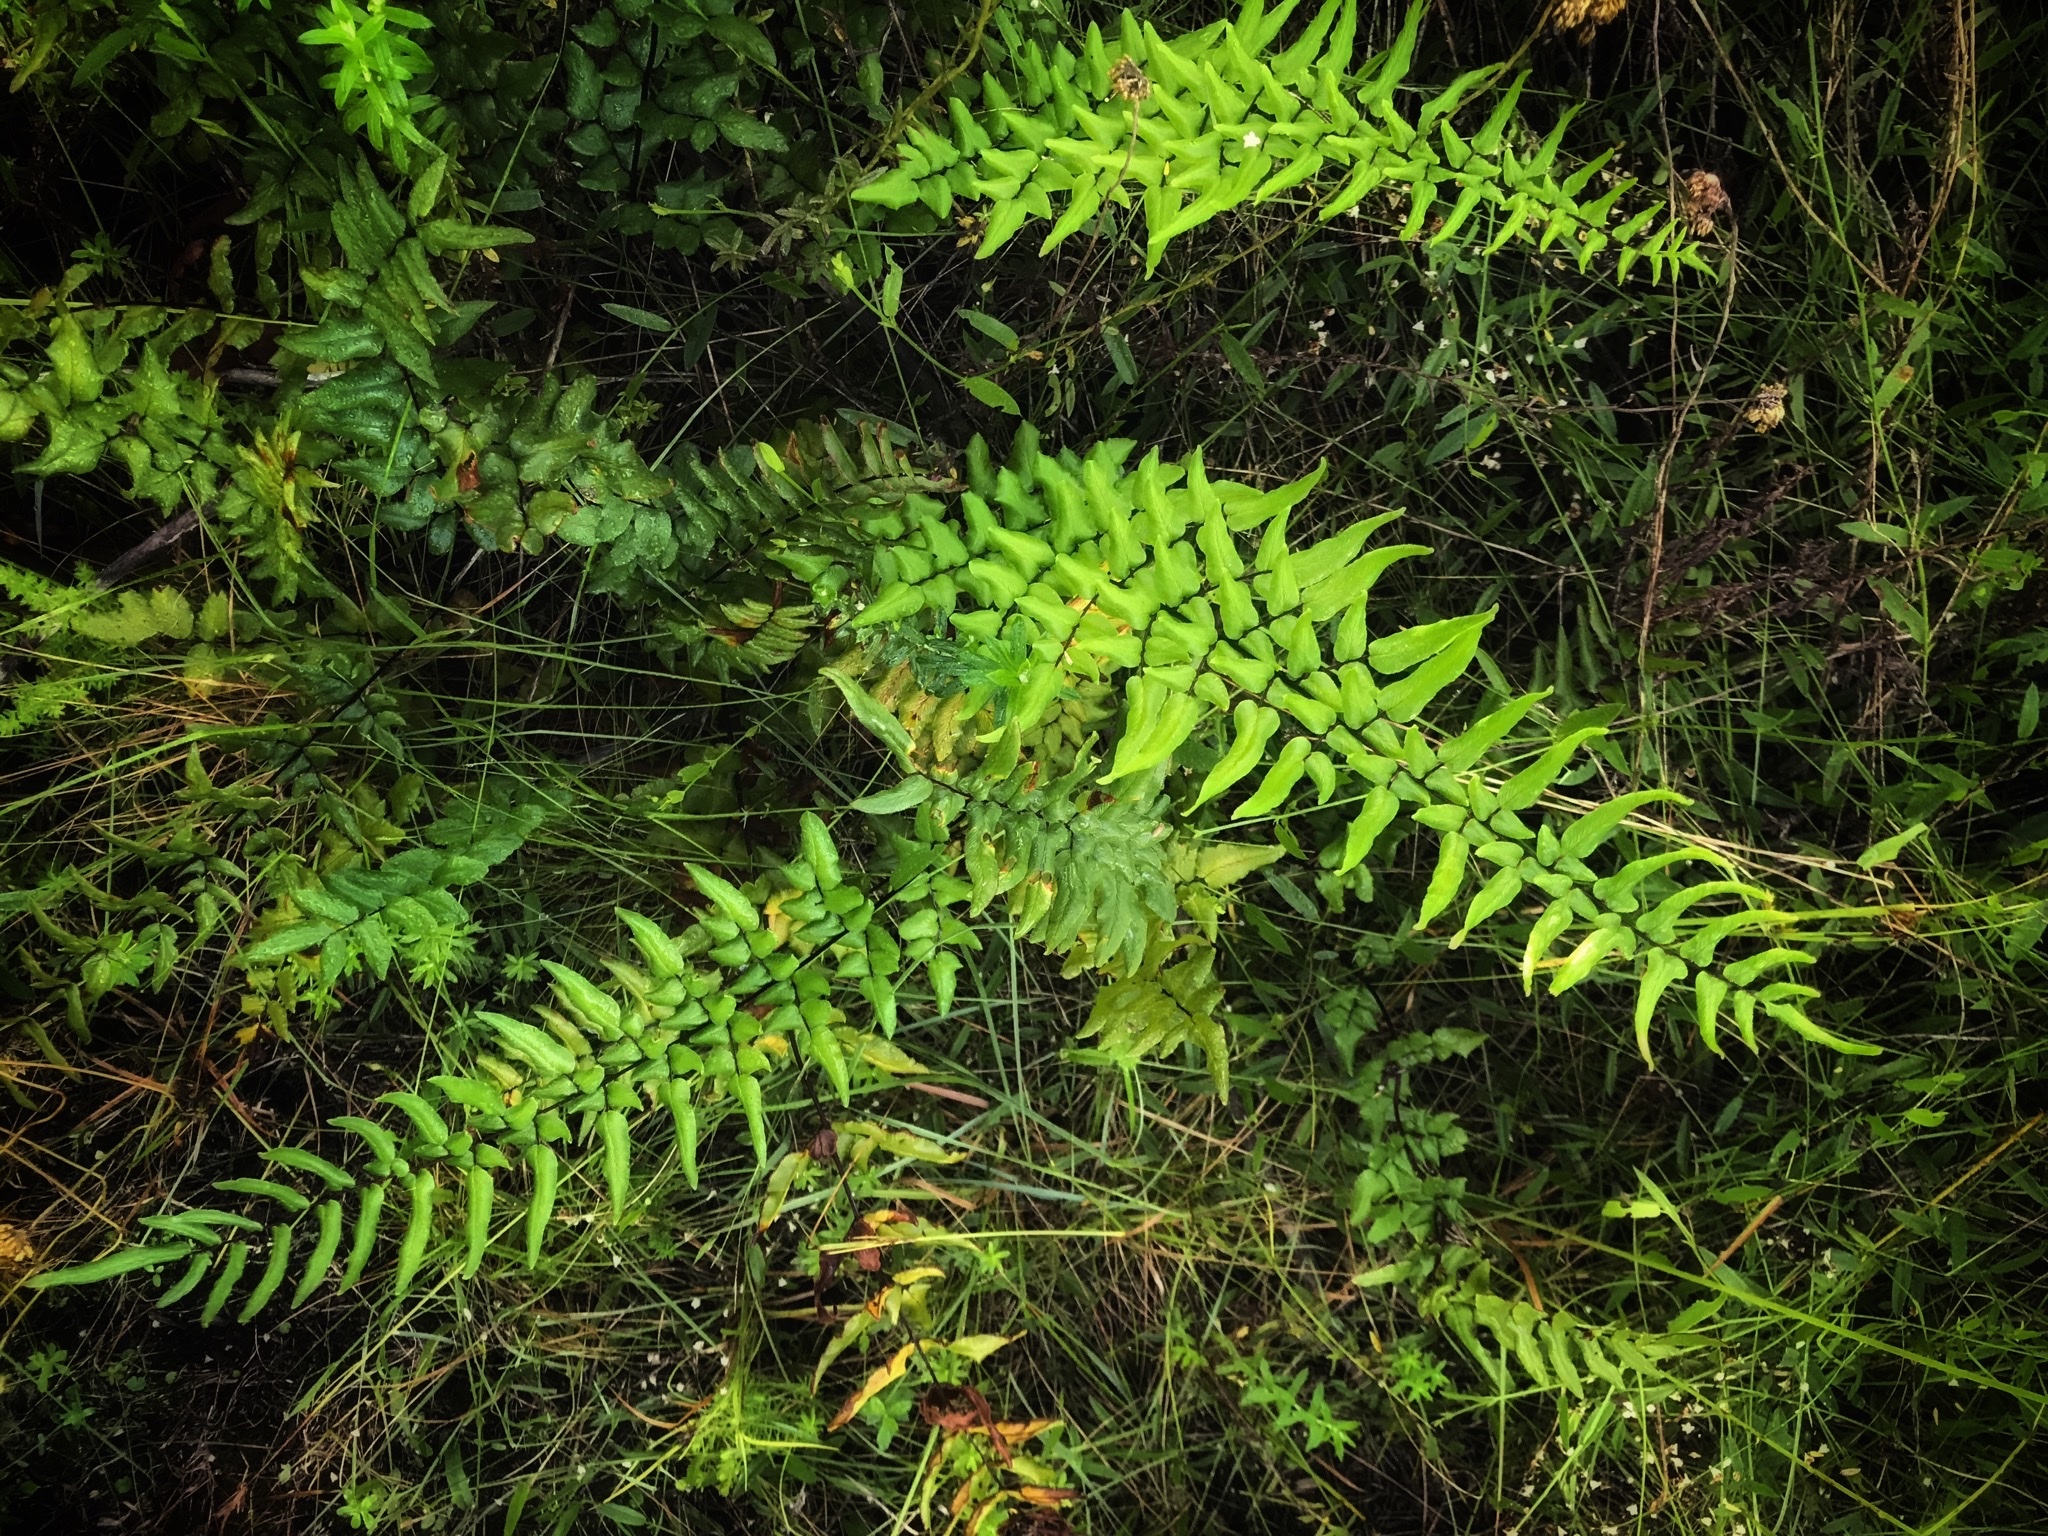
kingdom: Plantae
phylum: Tracheophyta
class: Polypodiopsida
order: Polypodiales
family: Pteridaceae
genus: Cheilanthes
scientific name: Cheilanthes viridis
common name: Green cliffbrake
